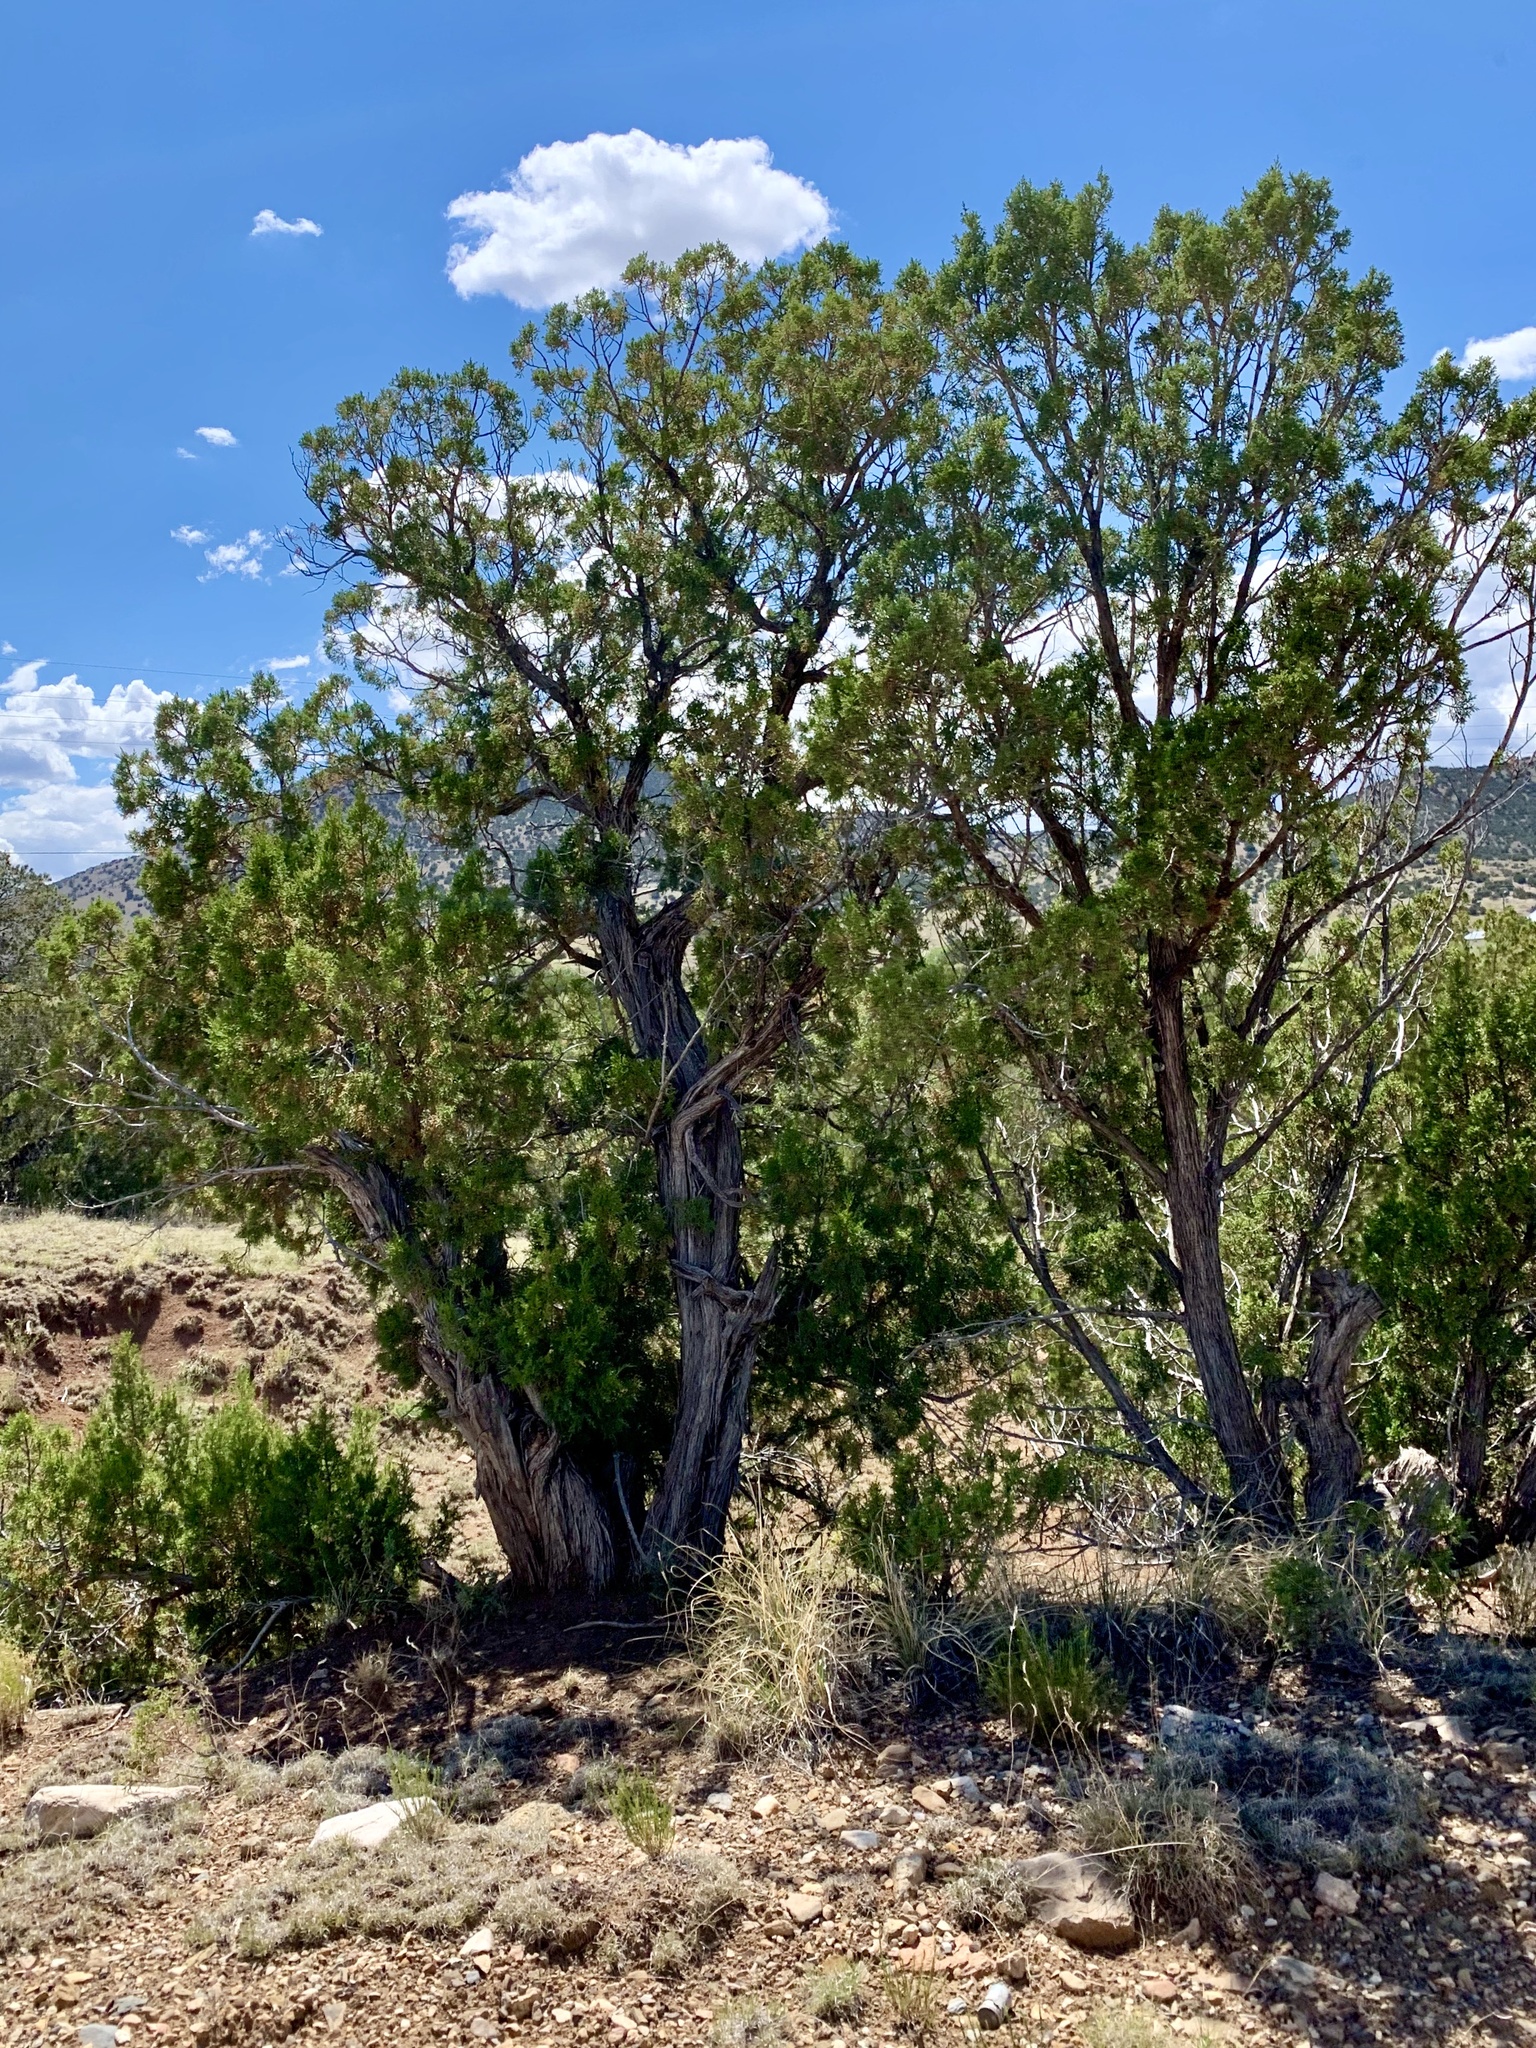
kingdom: Plantae
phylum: Tracheophyta
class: Pinopsida
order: Pinales
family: Cupressaceae
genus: Juniperus
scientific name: Juniperus monosperma
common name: One-seed juniper
